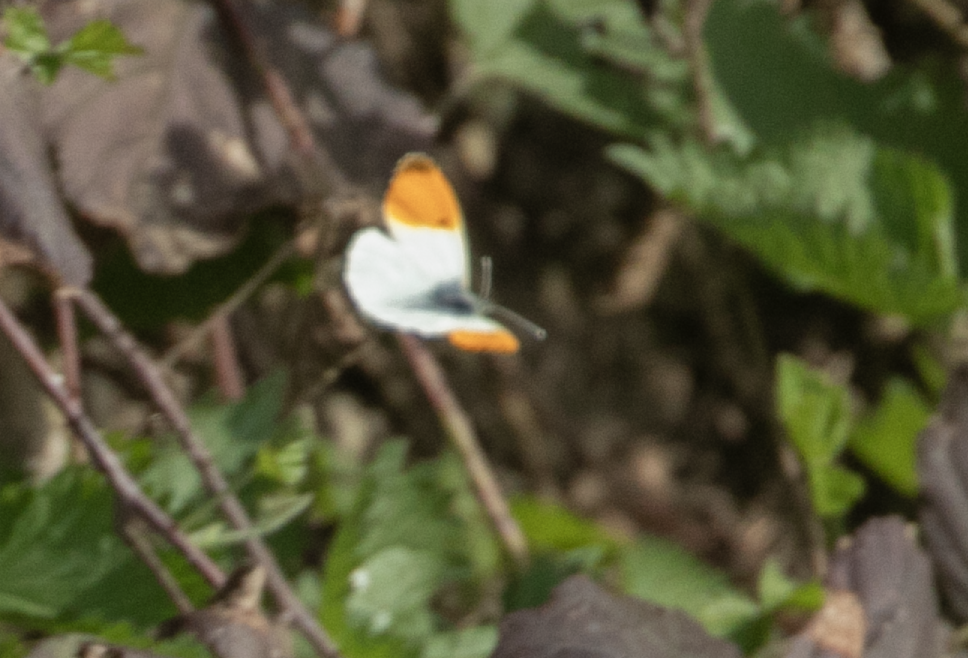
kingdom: Animalia
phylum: Arthropoda
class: Insecta
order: Lepidoptera
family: Pieridae
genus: Anthocharis
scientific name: Anthocharis cardamines
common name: Orange-tip
